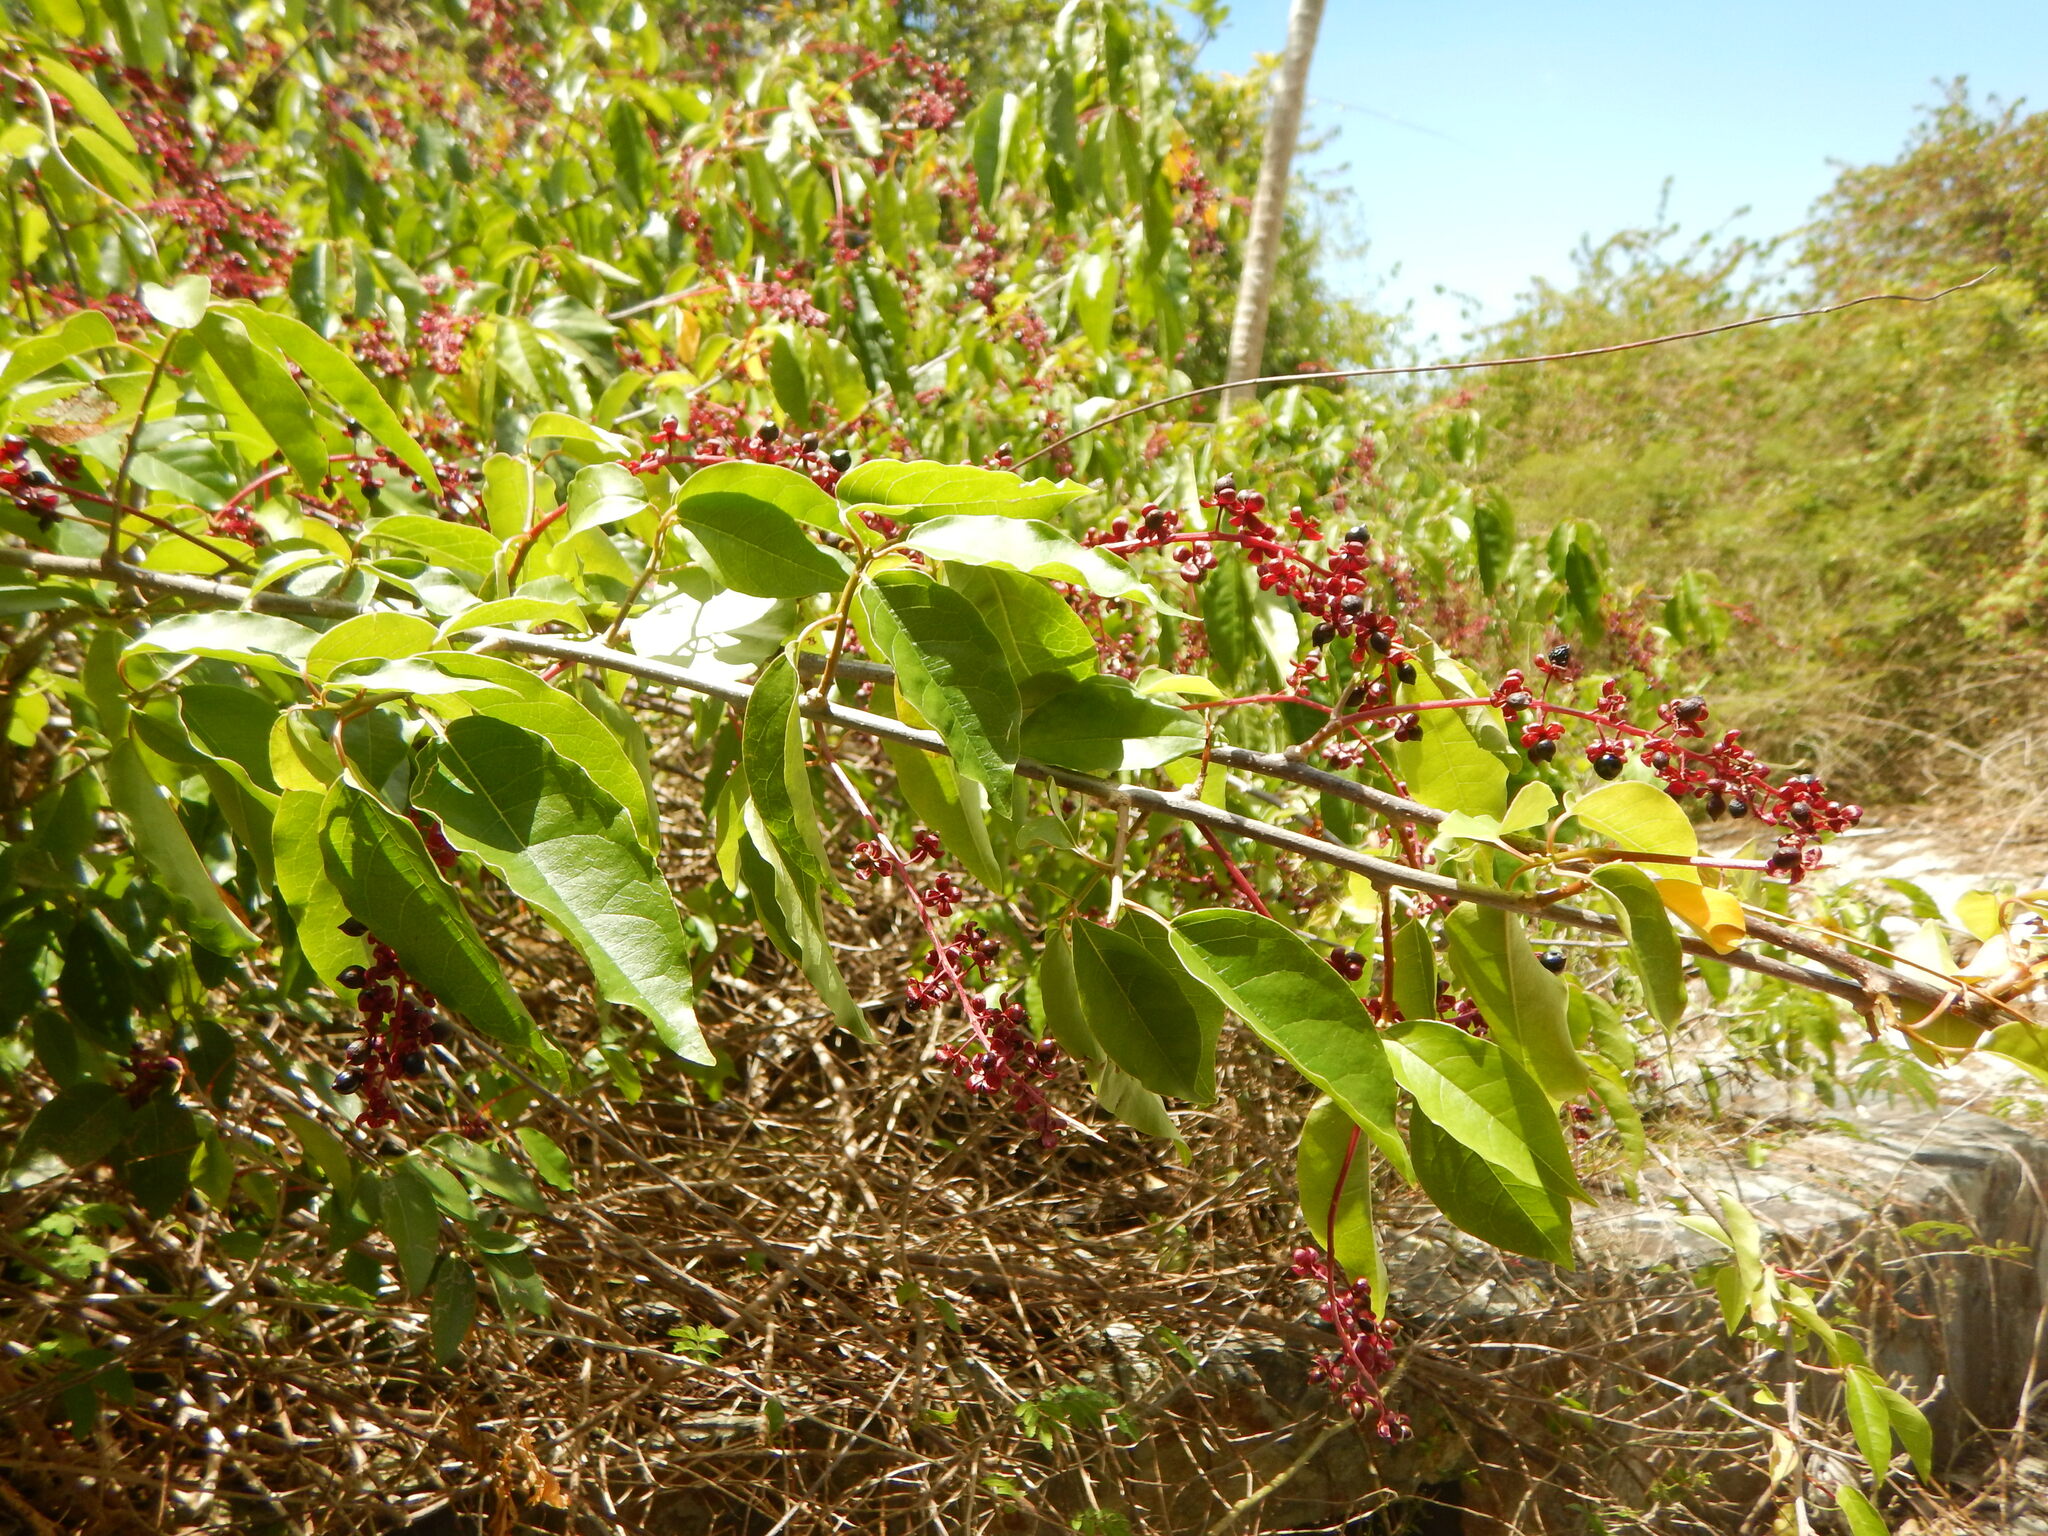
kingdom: Plantae
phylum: Tracheophyta
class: Magnoliopsida
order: Caryophyllales
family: Phytolaccaceae
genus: Trichostigma
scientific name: Trichostigma octandrum
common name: Basket wiss
